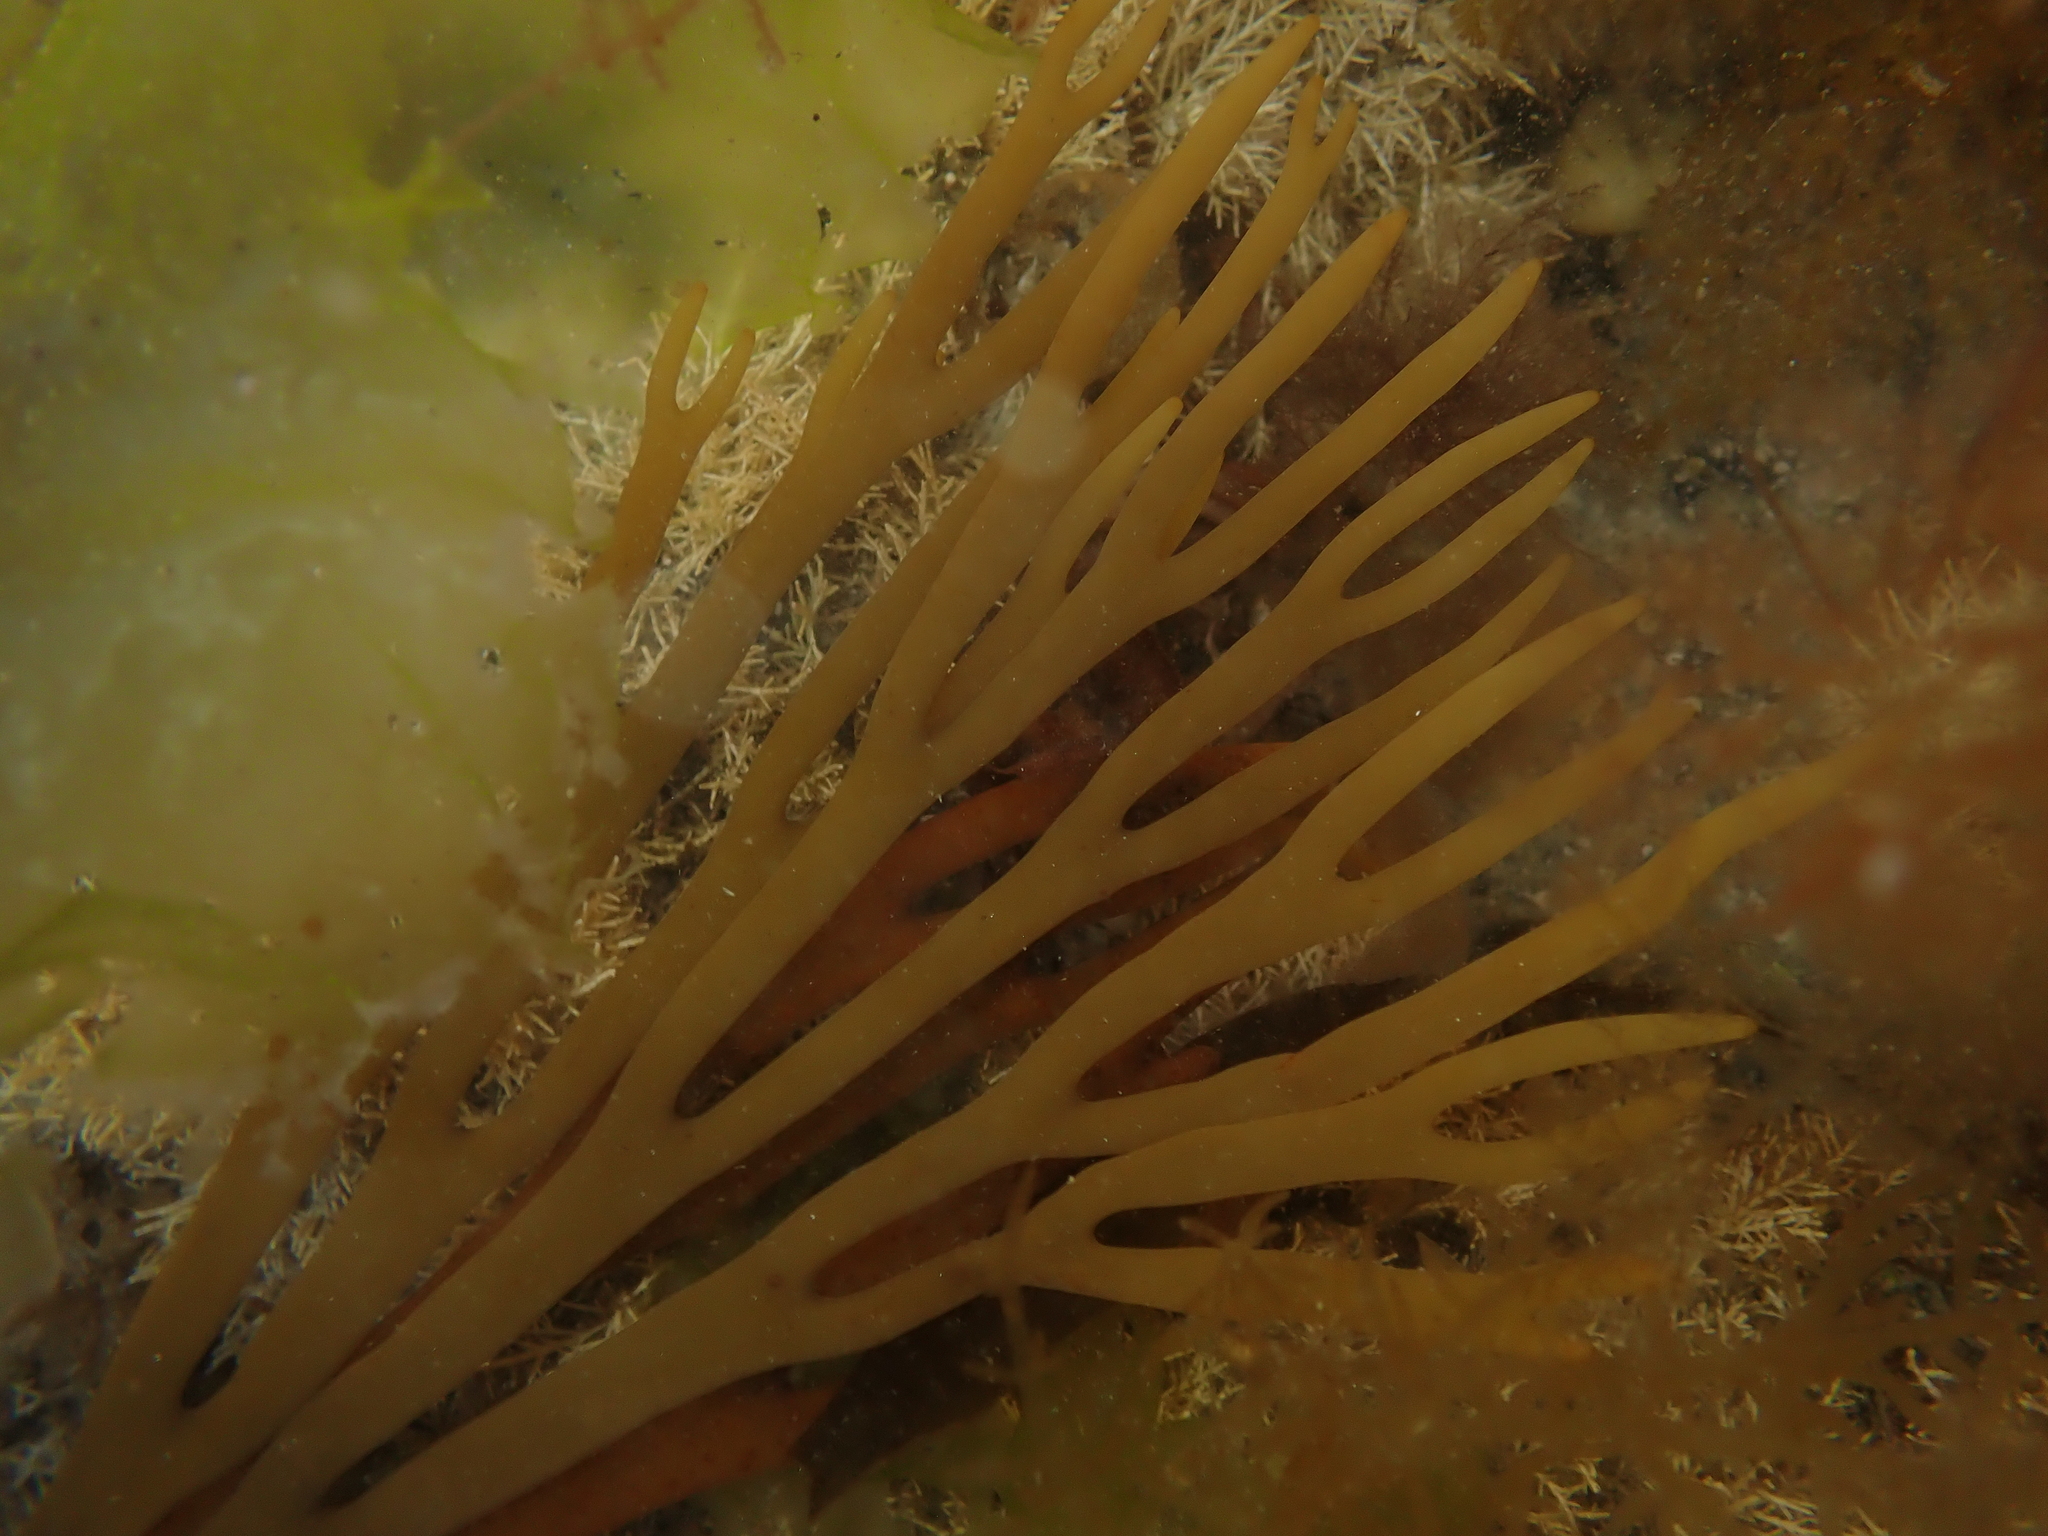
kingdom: Chromista
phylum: Ochrophyta
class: Phaeophyceae
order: Fucales
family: Xiphophoraceae
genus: Xiphophora
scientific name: Xiphophora gladiata
